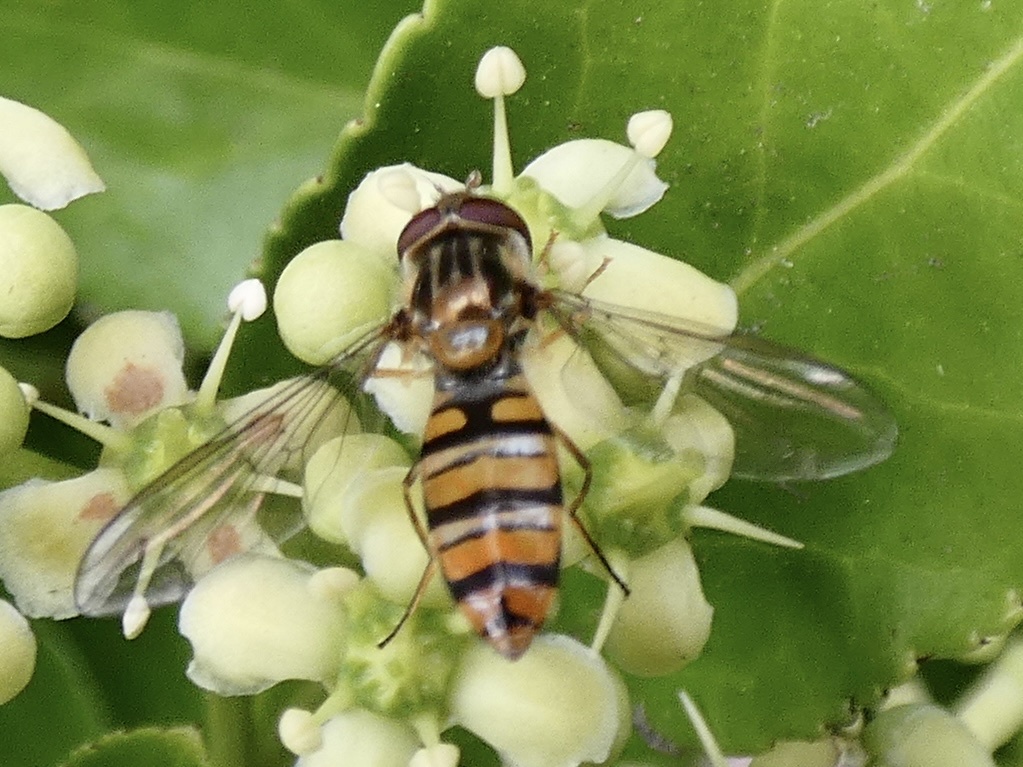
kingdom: Animalia
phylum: Arthropoda
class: Insecta
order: Diptera
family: Syrphidae
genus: Episyrphus
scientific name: Episyrphus balteatus
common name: Marmalade hoverfly
